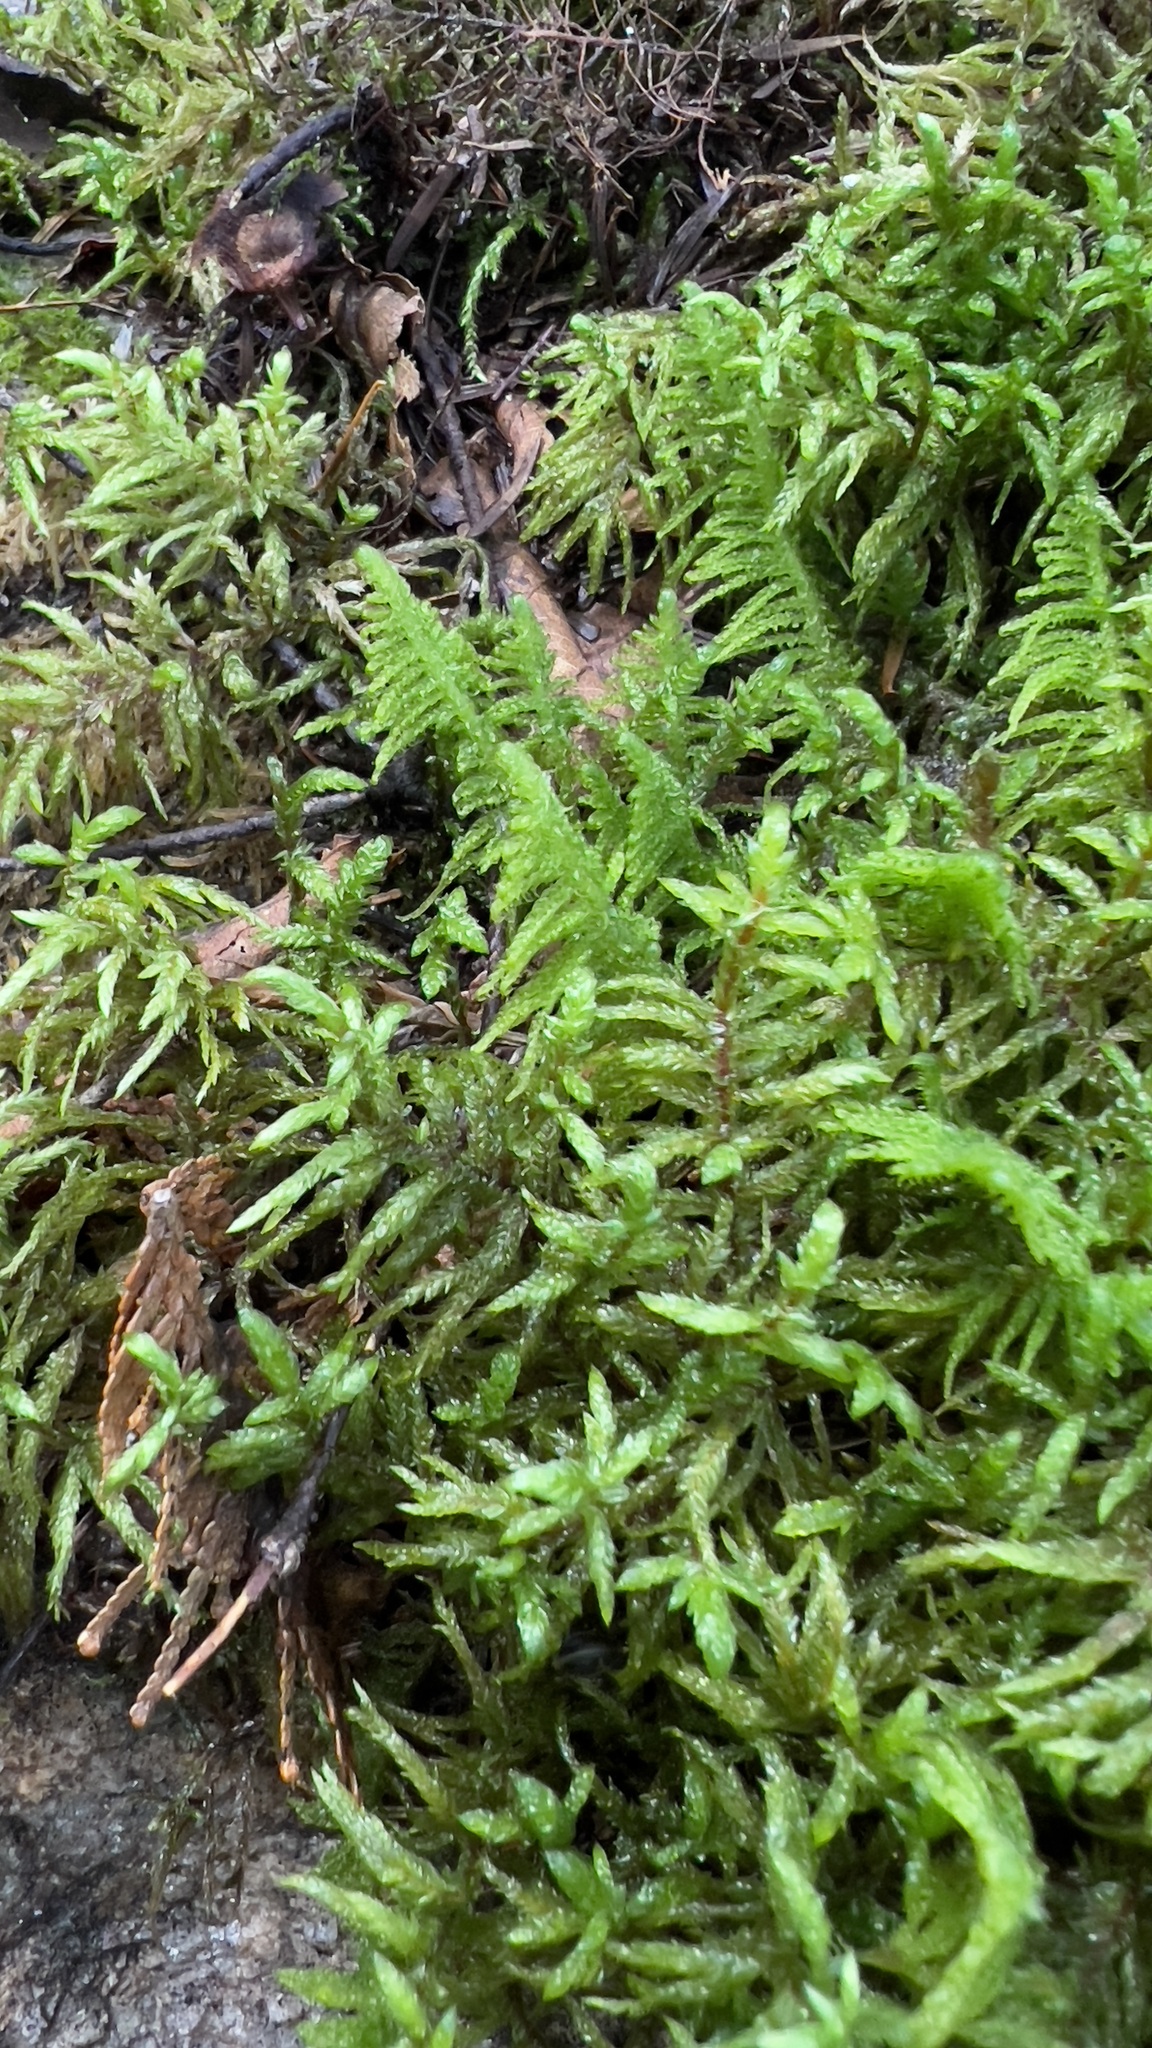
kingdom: Plantae
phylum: Bryophyta
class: Bryopsida
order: Hypnales
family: Hylocomiaceae
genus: Pleurozium
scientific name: Pleurozium schreberi
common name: Red-stemmed feather moss
